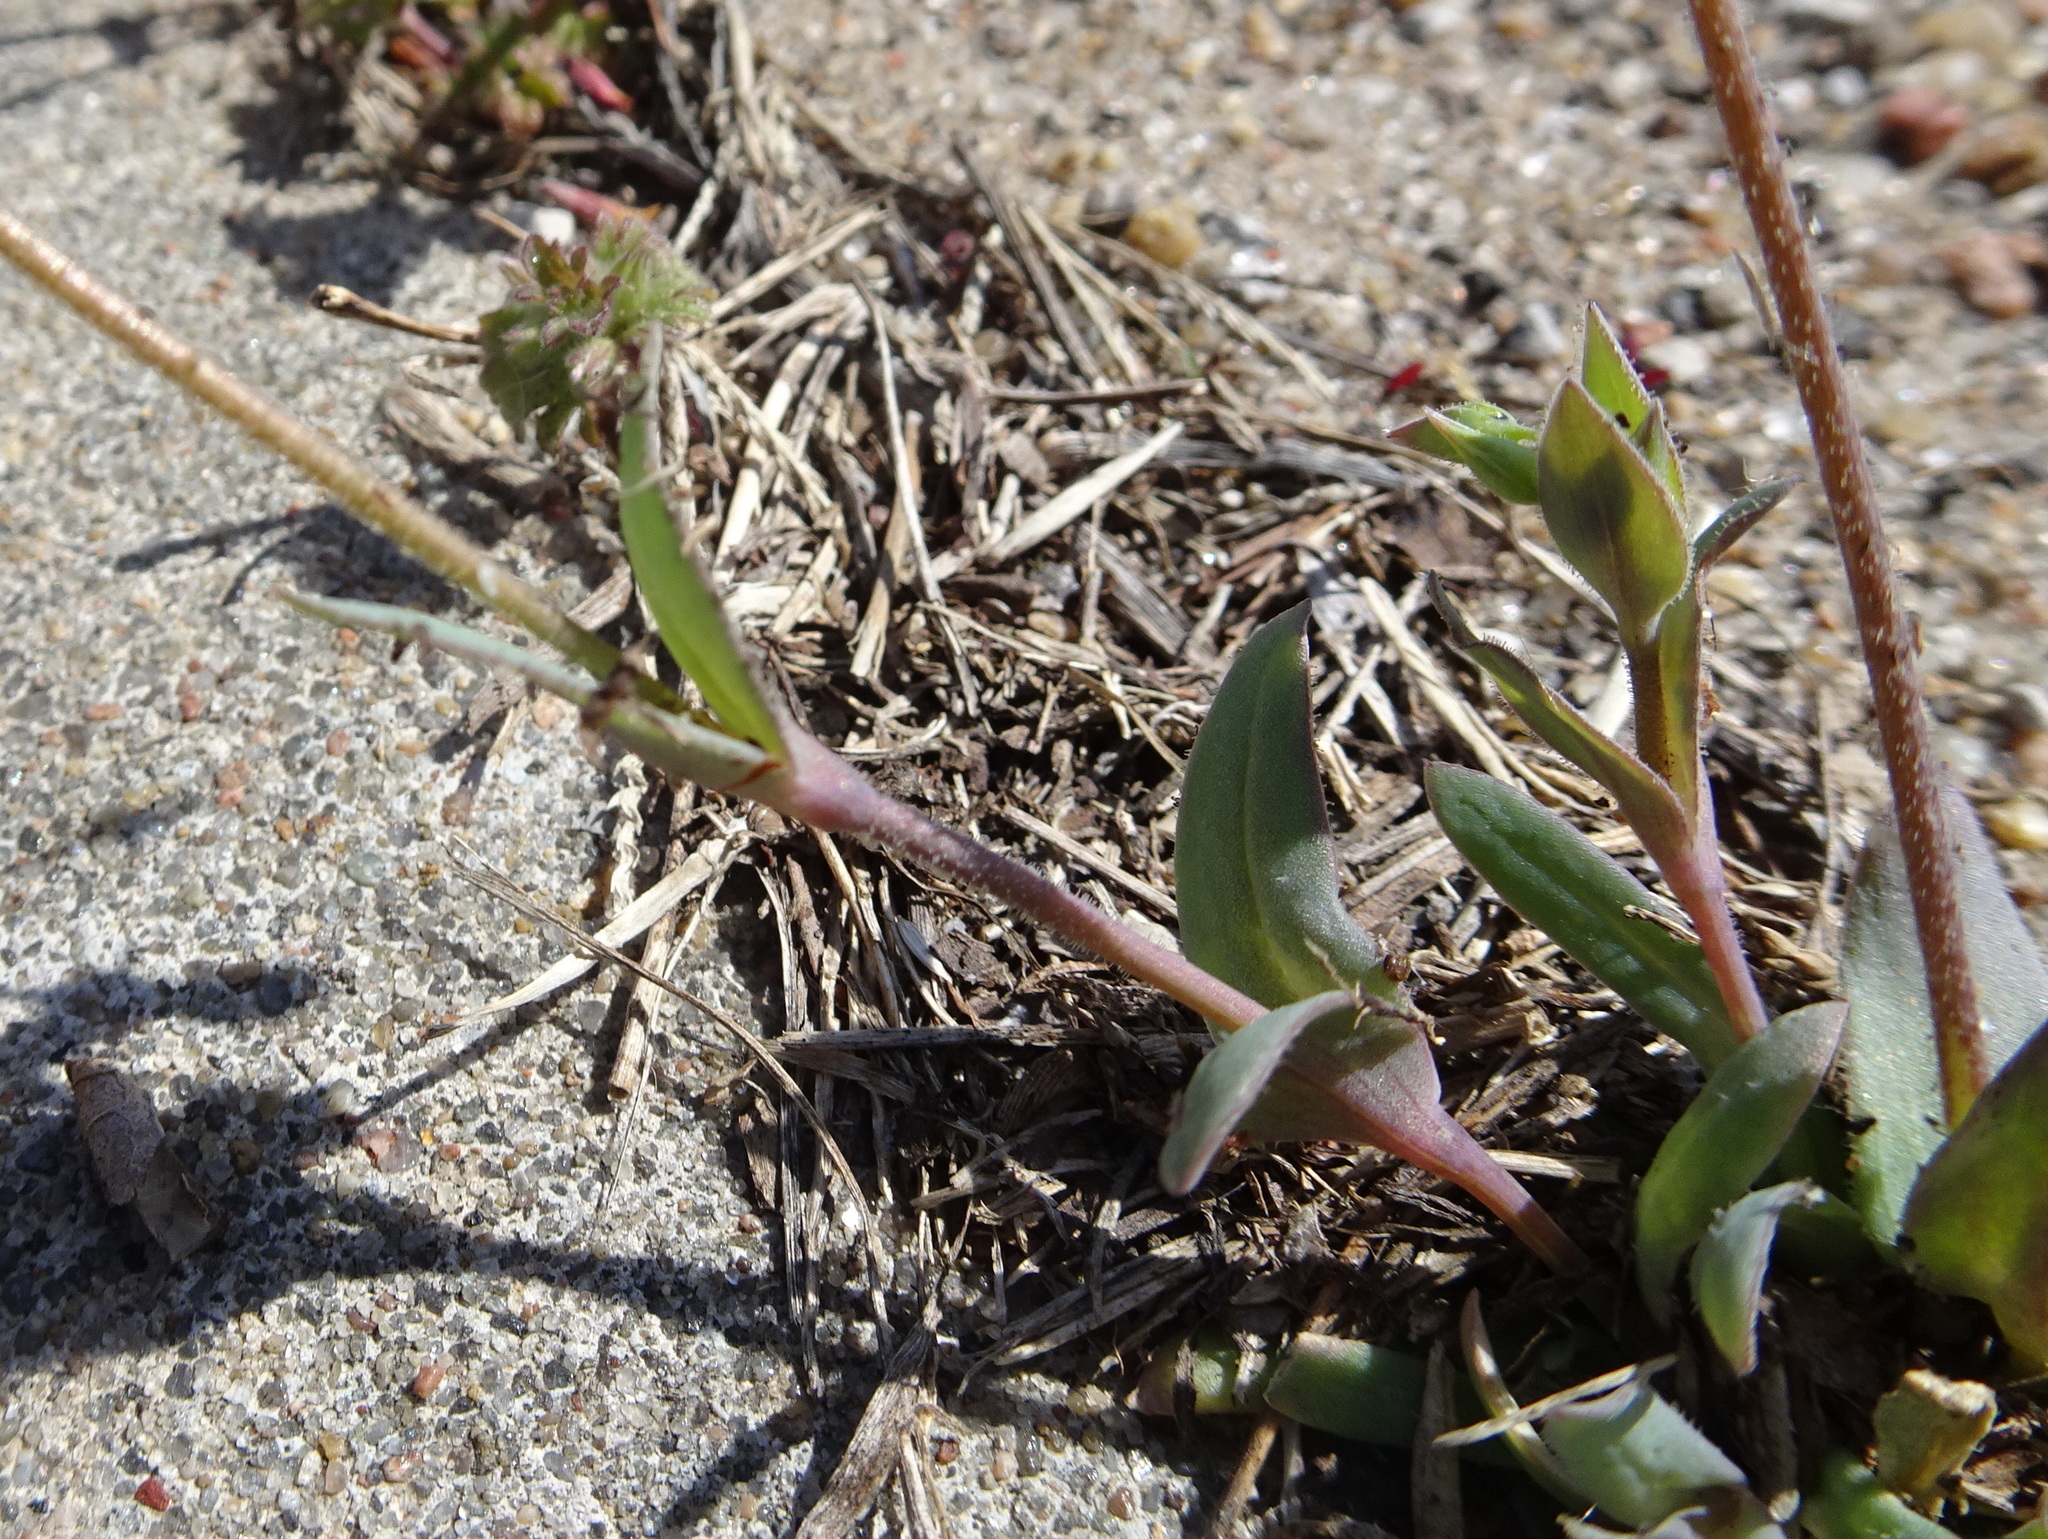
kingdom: Plantae
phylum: Tracheophyta
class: Magnoliopsida
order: Caryophyllales
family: Caryophyllaceae
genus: Holosteum
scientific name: Holosteum umbellatum
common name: Jagged chickweed
